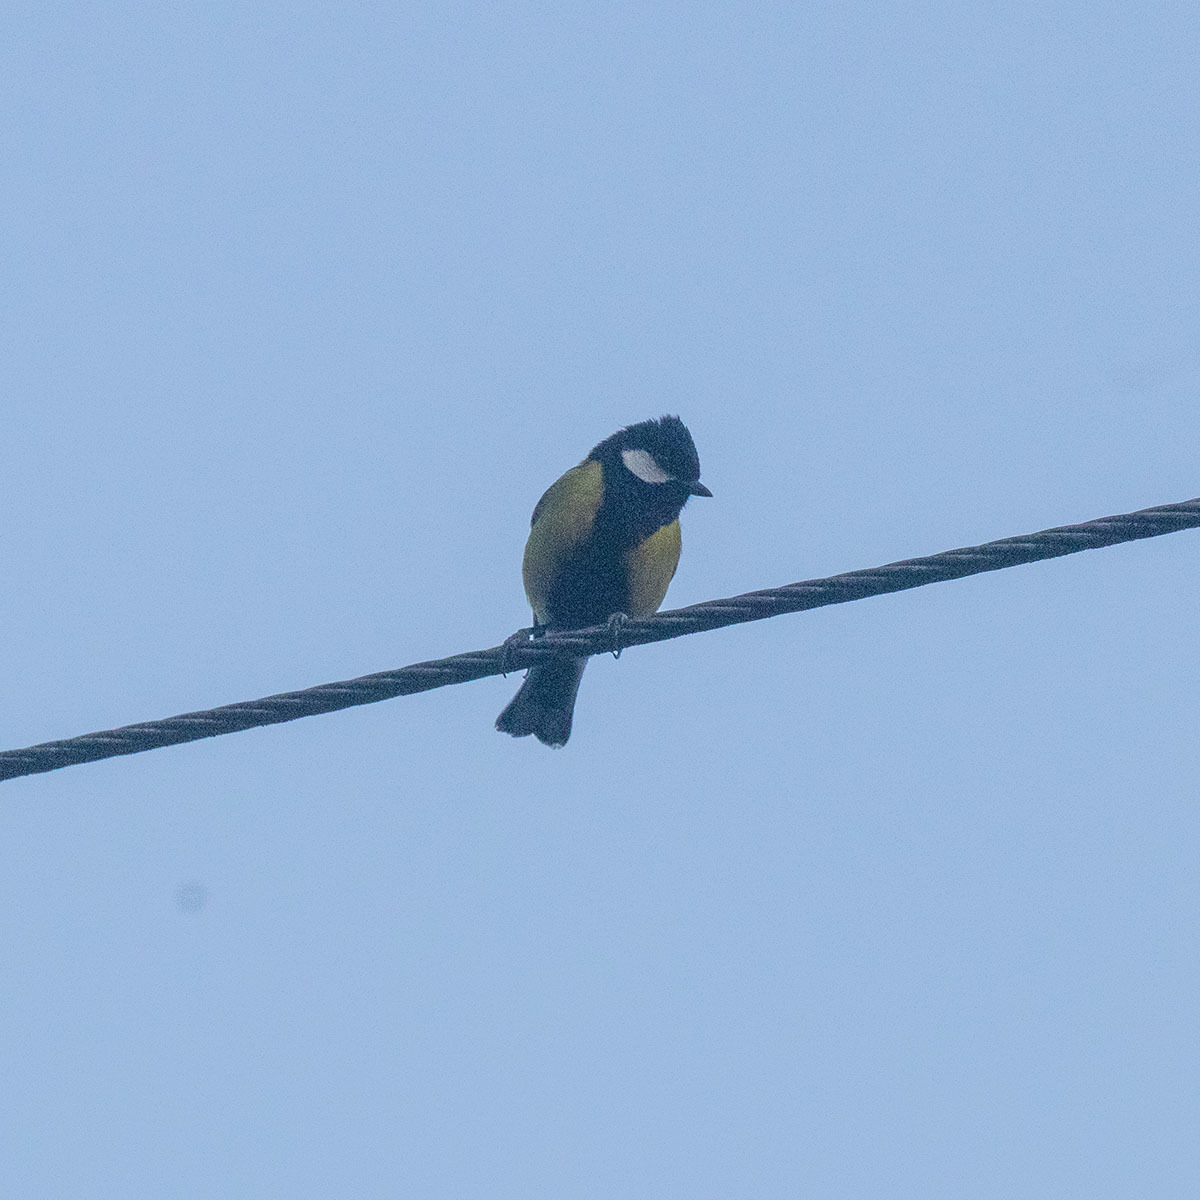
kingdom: Animalia
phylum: Chordata
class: Aves
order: Passeriformes
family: Paridae
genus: Parus
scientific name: Parus monticolus
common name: Green-backed tit
